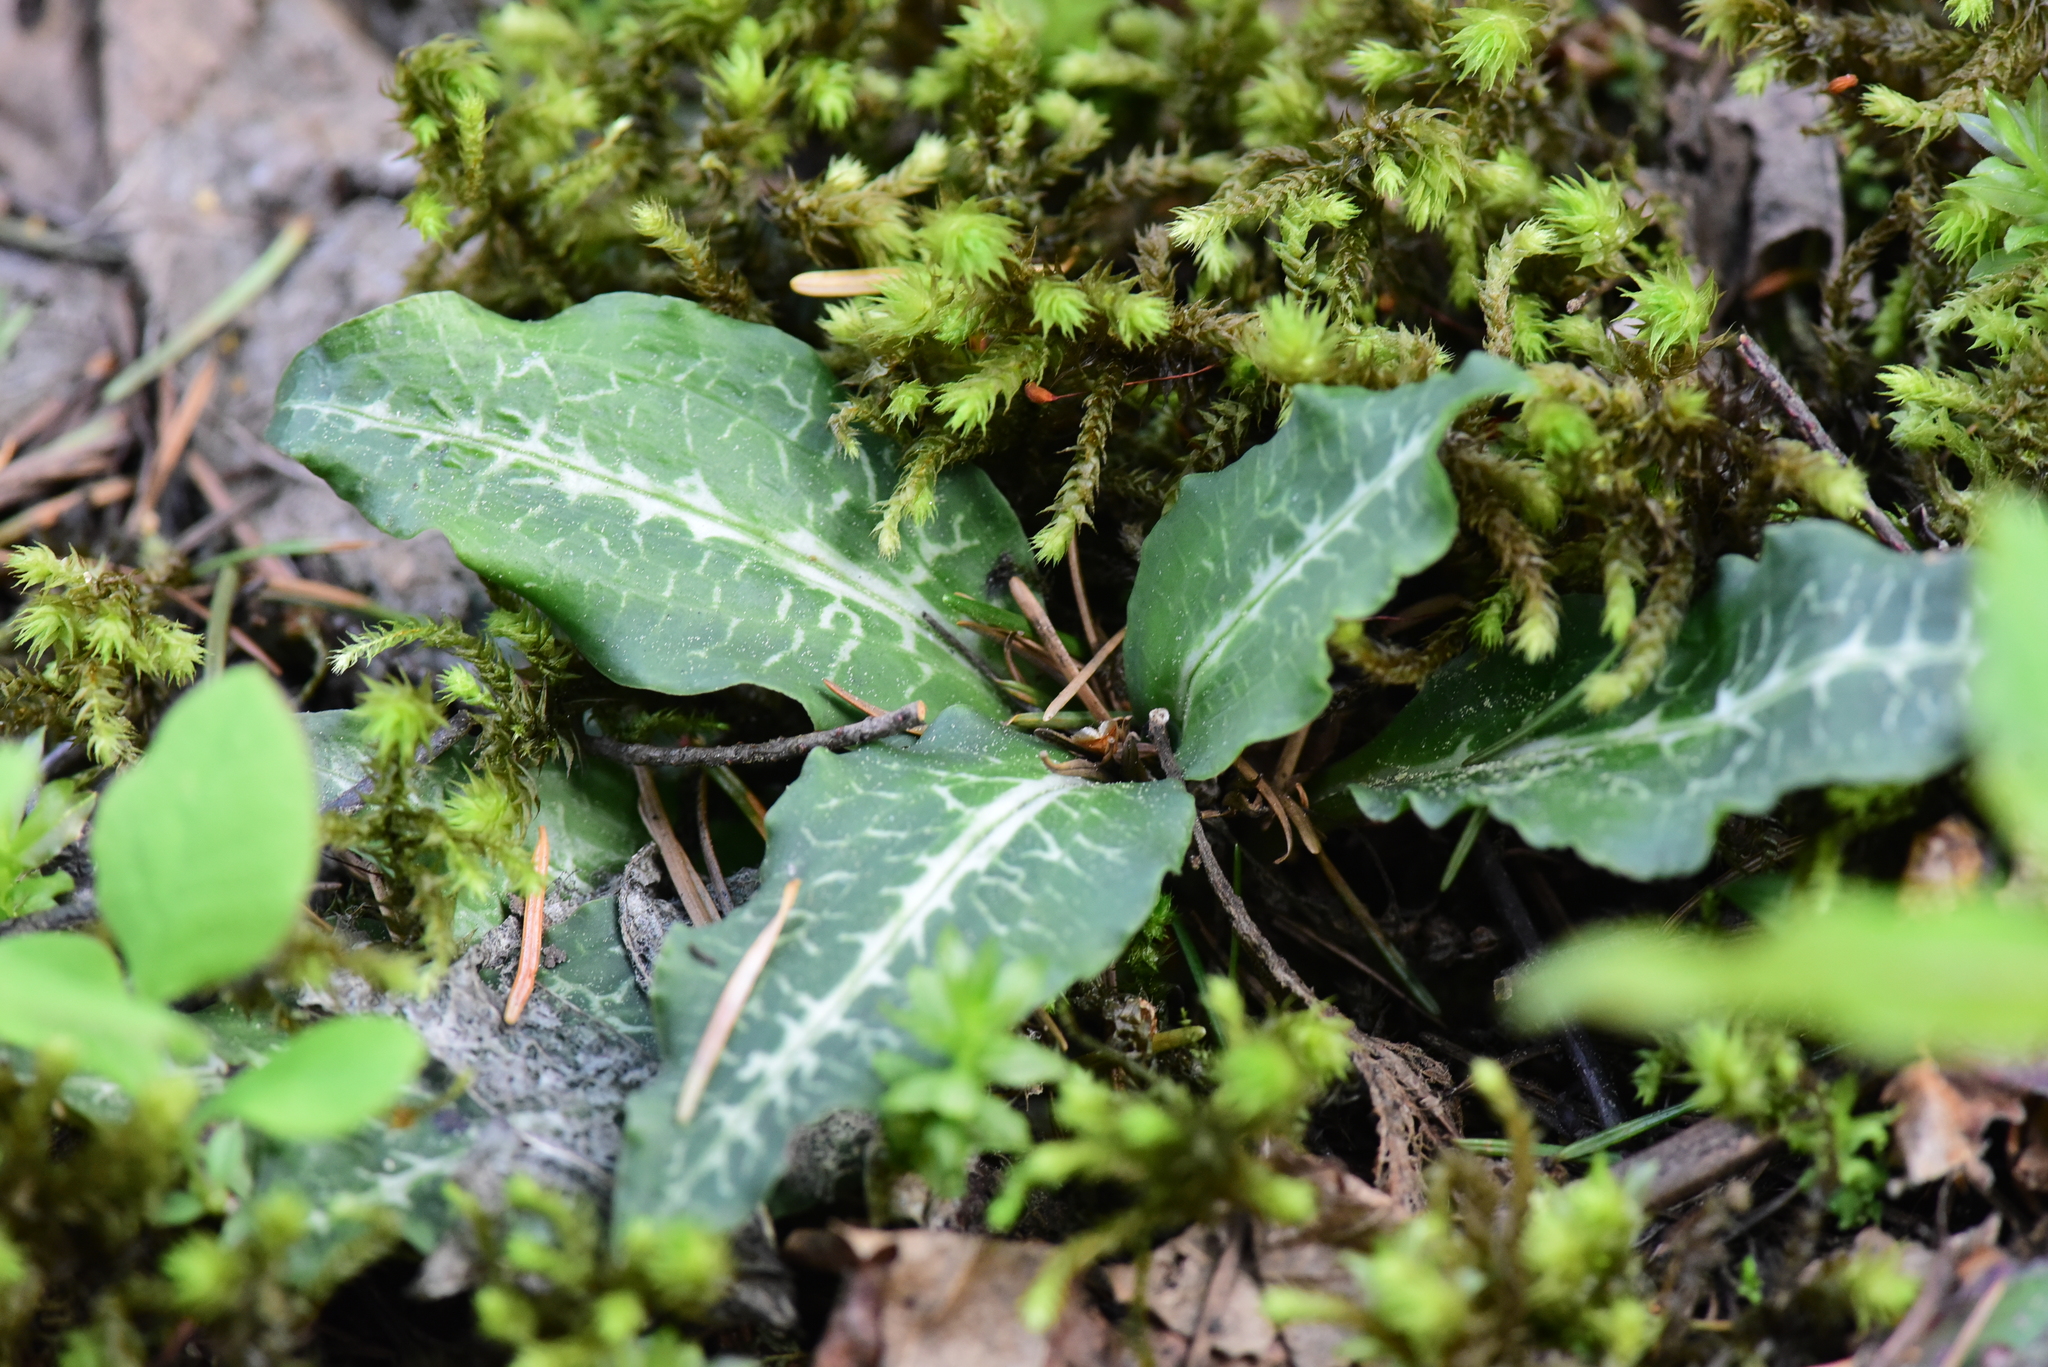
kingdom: Plantae
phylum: Tracheophyta
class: Liliopsida
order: Asparagales
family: Orchidaceae
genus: Goodyera
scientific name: Goodyera oblongifolia
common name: Giant rattlesnake-plantain
